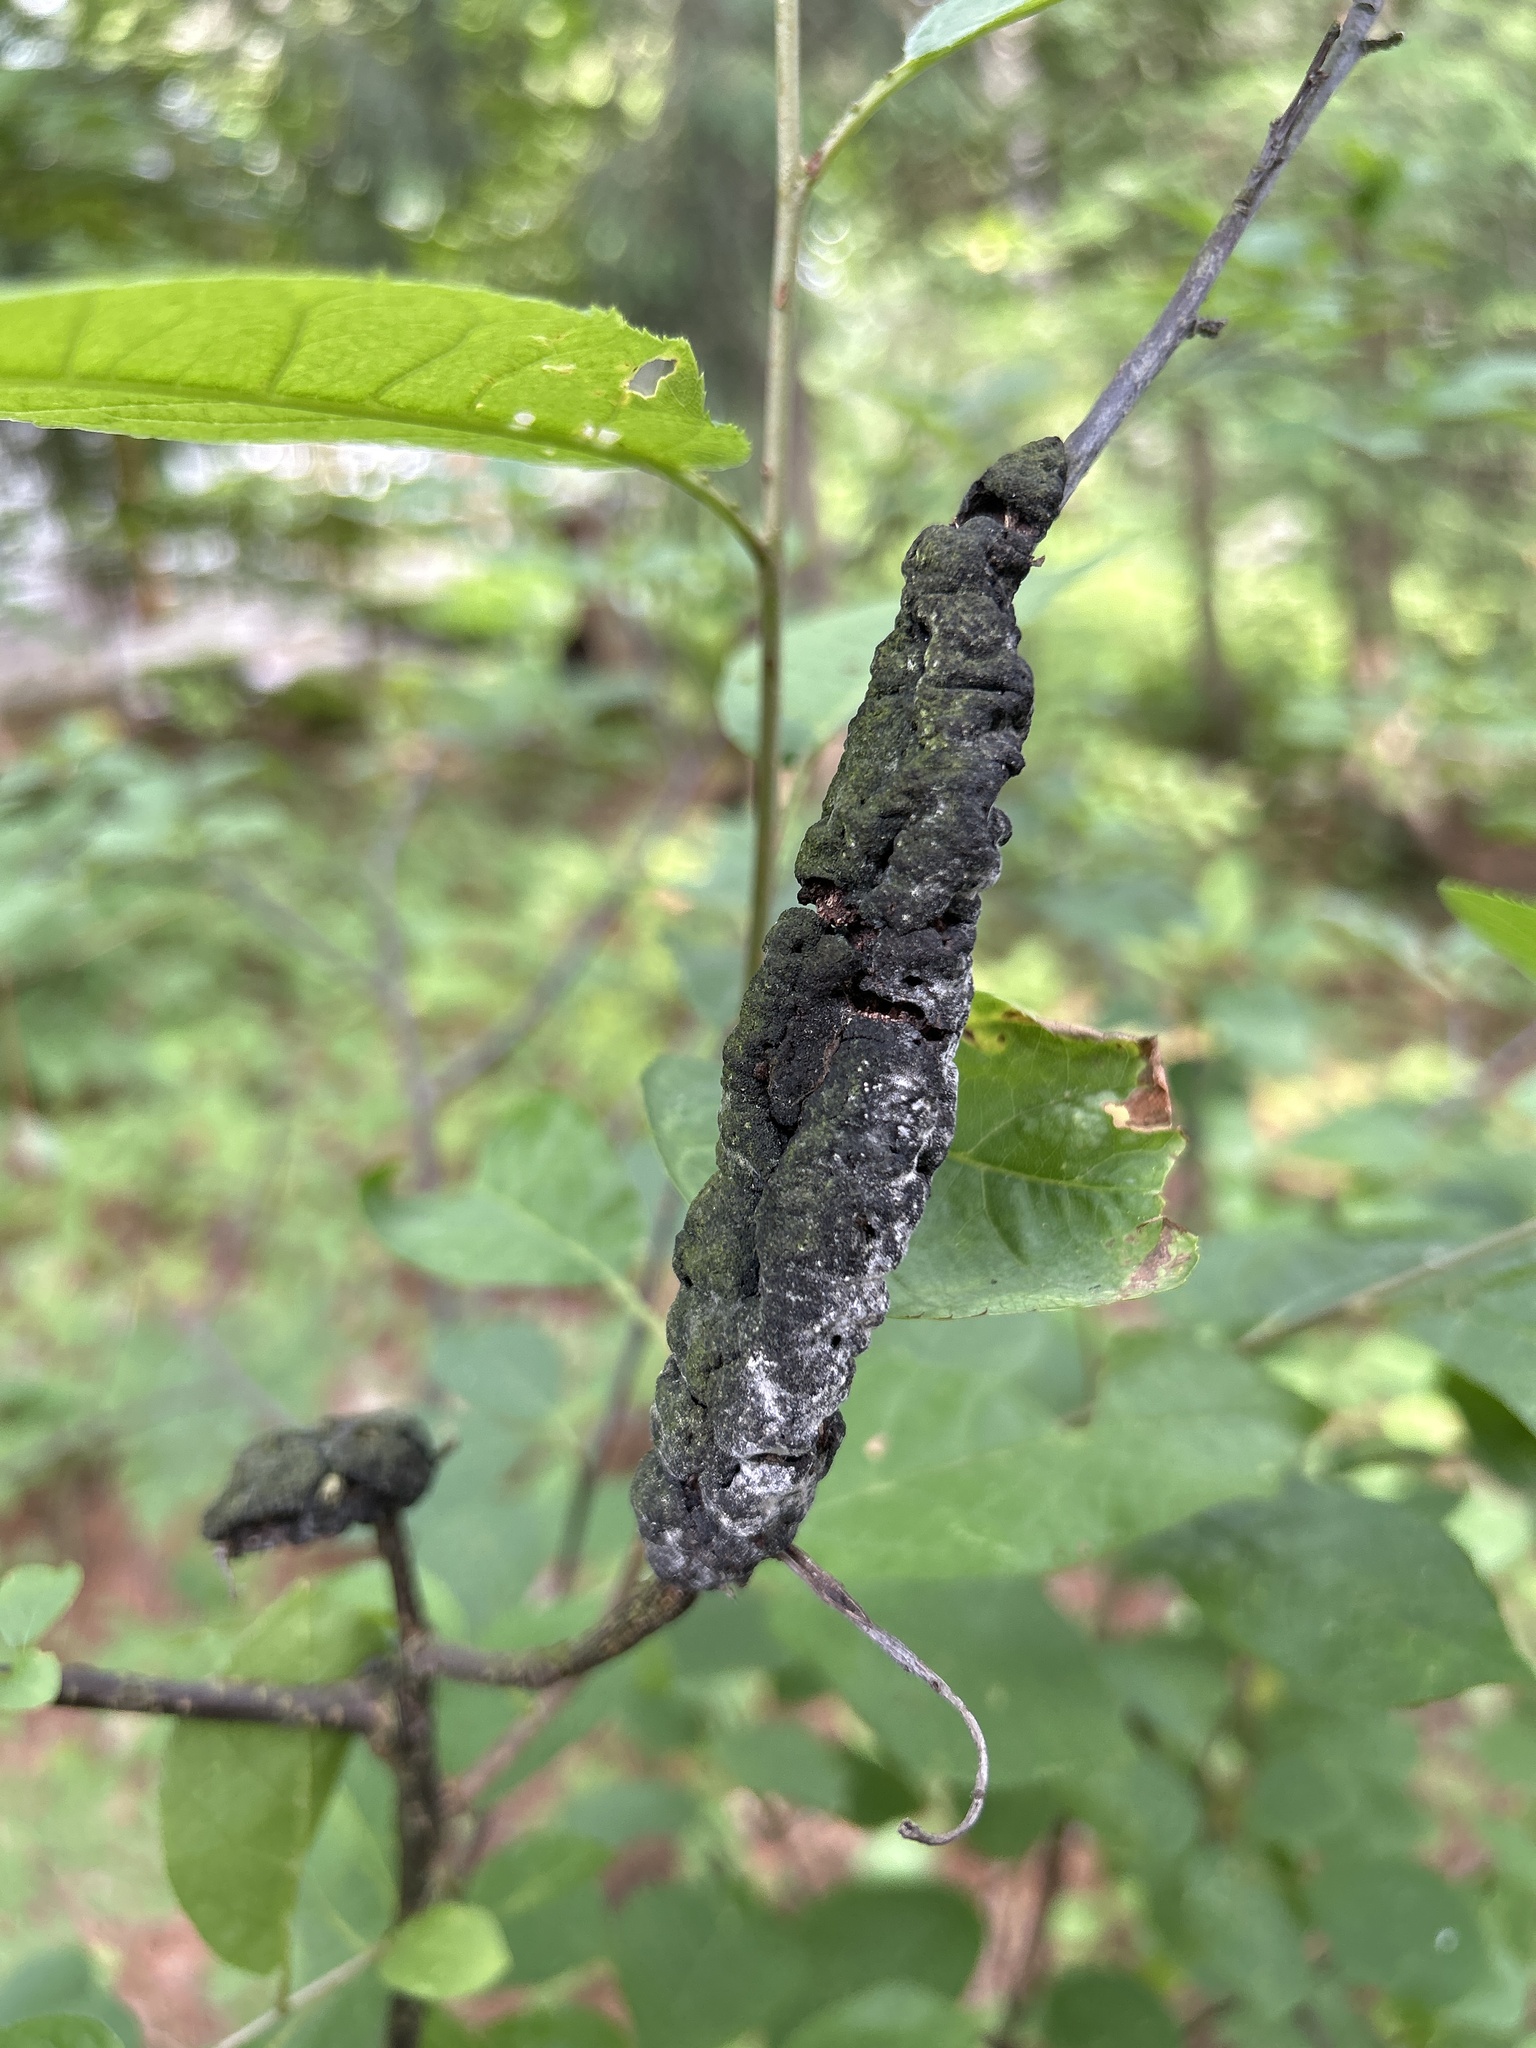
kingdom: Fungi
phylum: Ascomycota
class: Dothideomycetes
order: Venturiales
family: Venturiaceae
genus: Apiosporina
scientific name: Apiosporina morbosa
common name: Black knot
